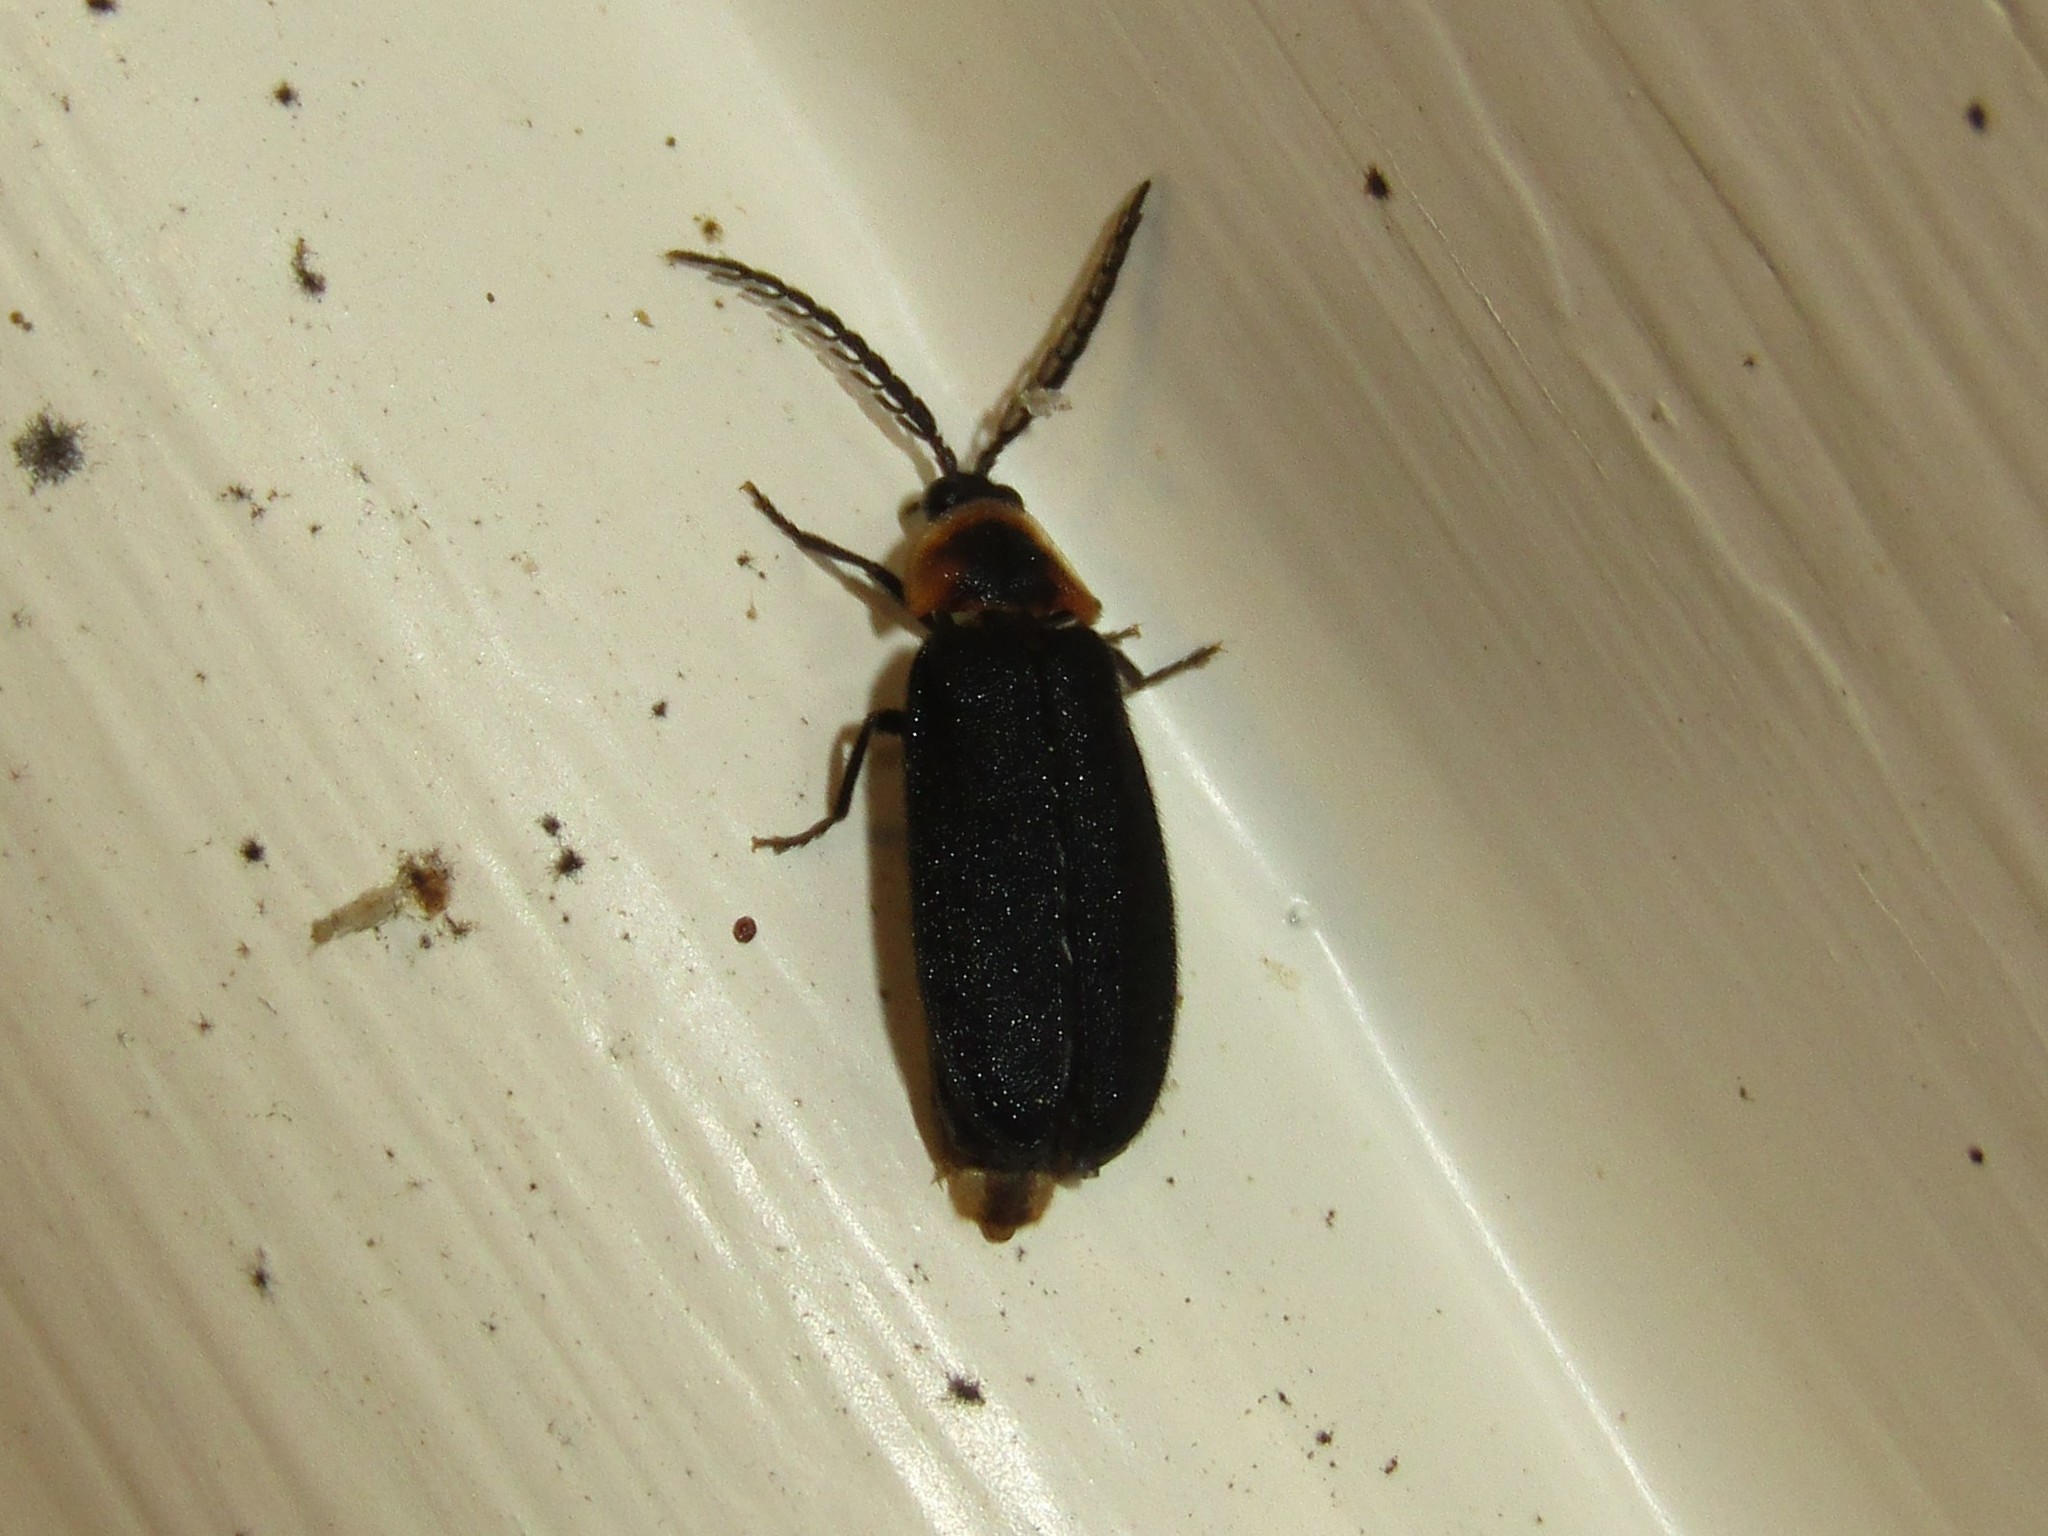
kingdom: Animalia
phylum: Arthropoda
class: Insecta
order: Coleoptera
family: Lampyridae
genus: Pollaclasis
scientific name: Pollaclasis bifaria
